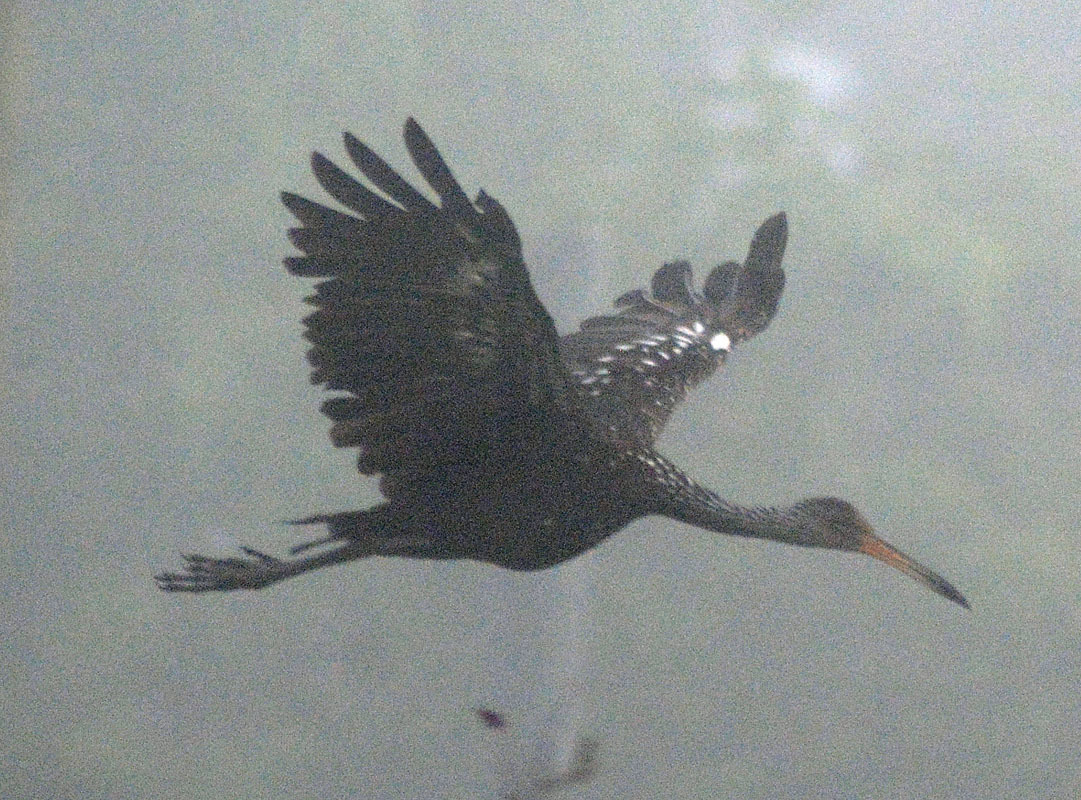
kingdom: Animalia
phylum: Chordata
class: Aves
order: Gruiformes
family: Aramidae
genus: Aramus
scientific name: Aramus guarauna
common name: Limpkin
